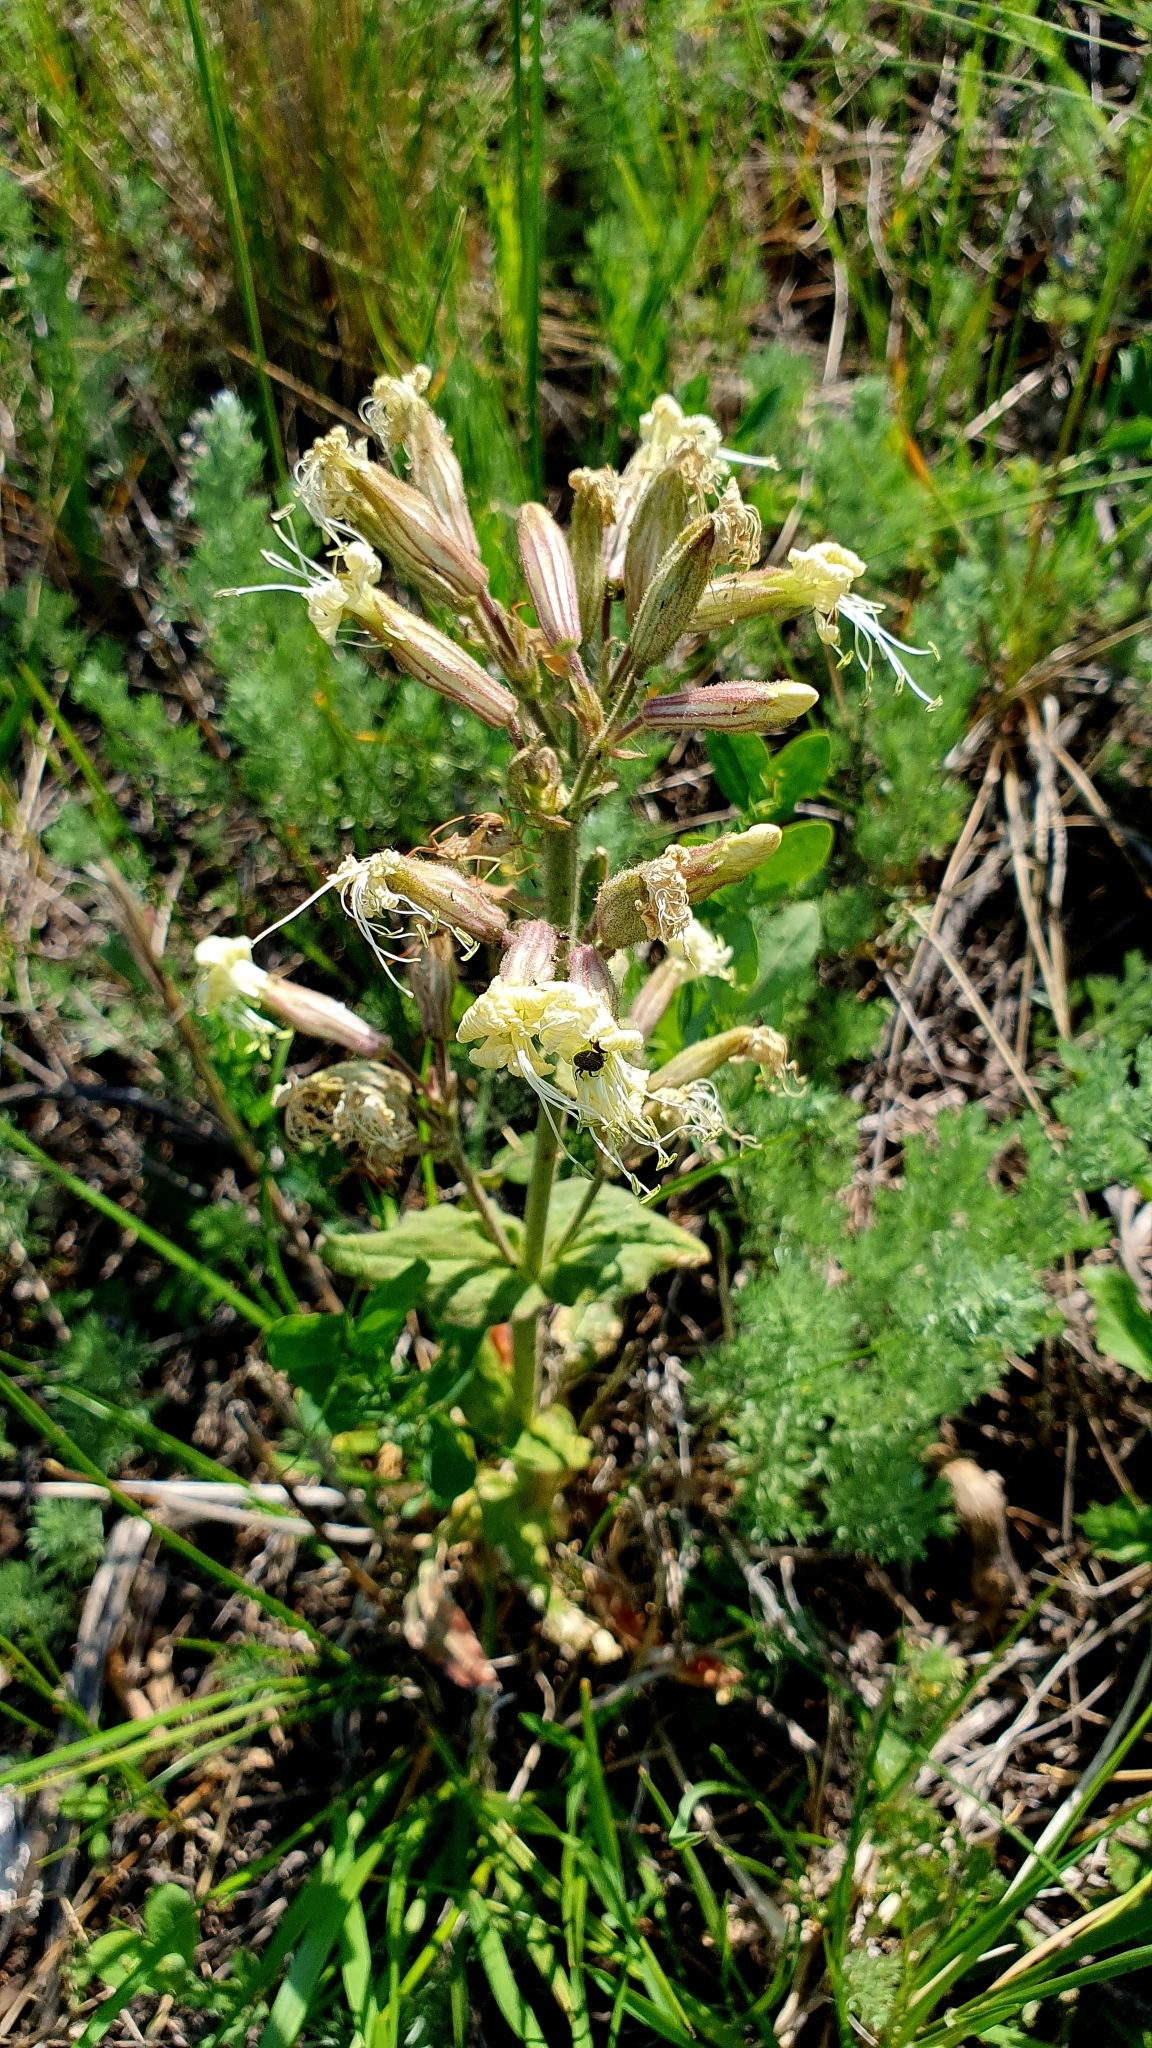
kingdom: Plantae
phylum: Tracheophyta
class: Magnoliopsida
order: Caryophyllales
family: Caryophyllaceae
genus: Silene
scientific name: Silene viscosa
